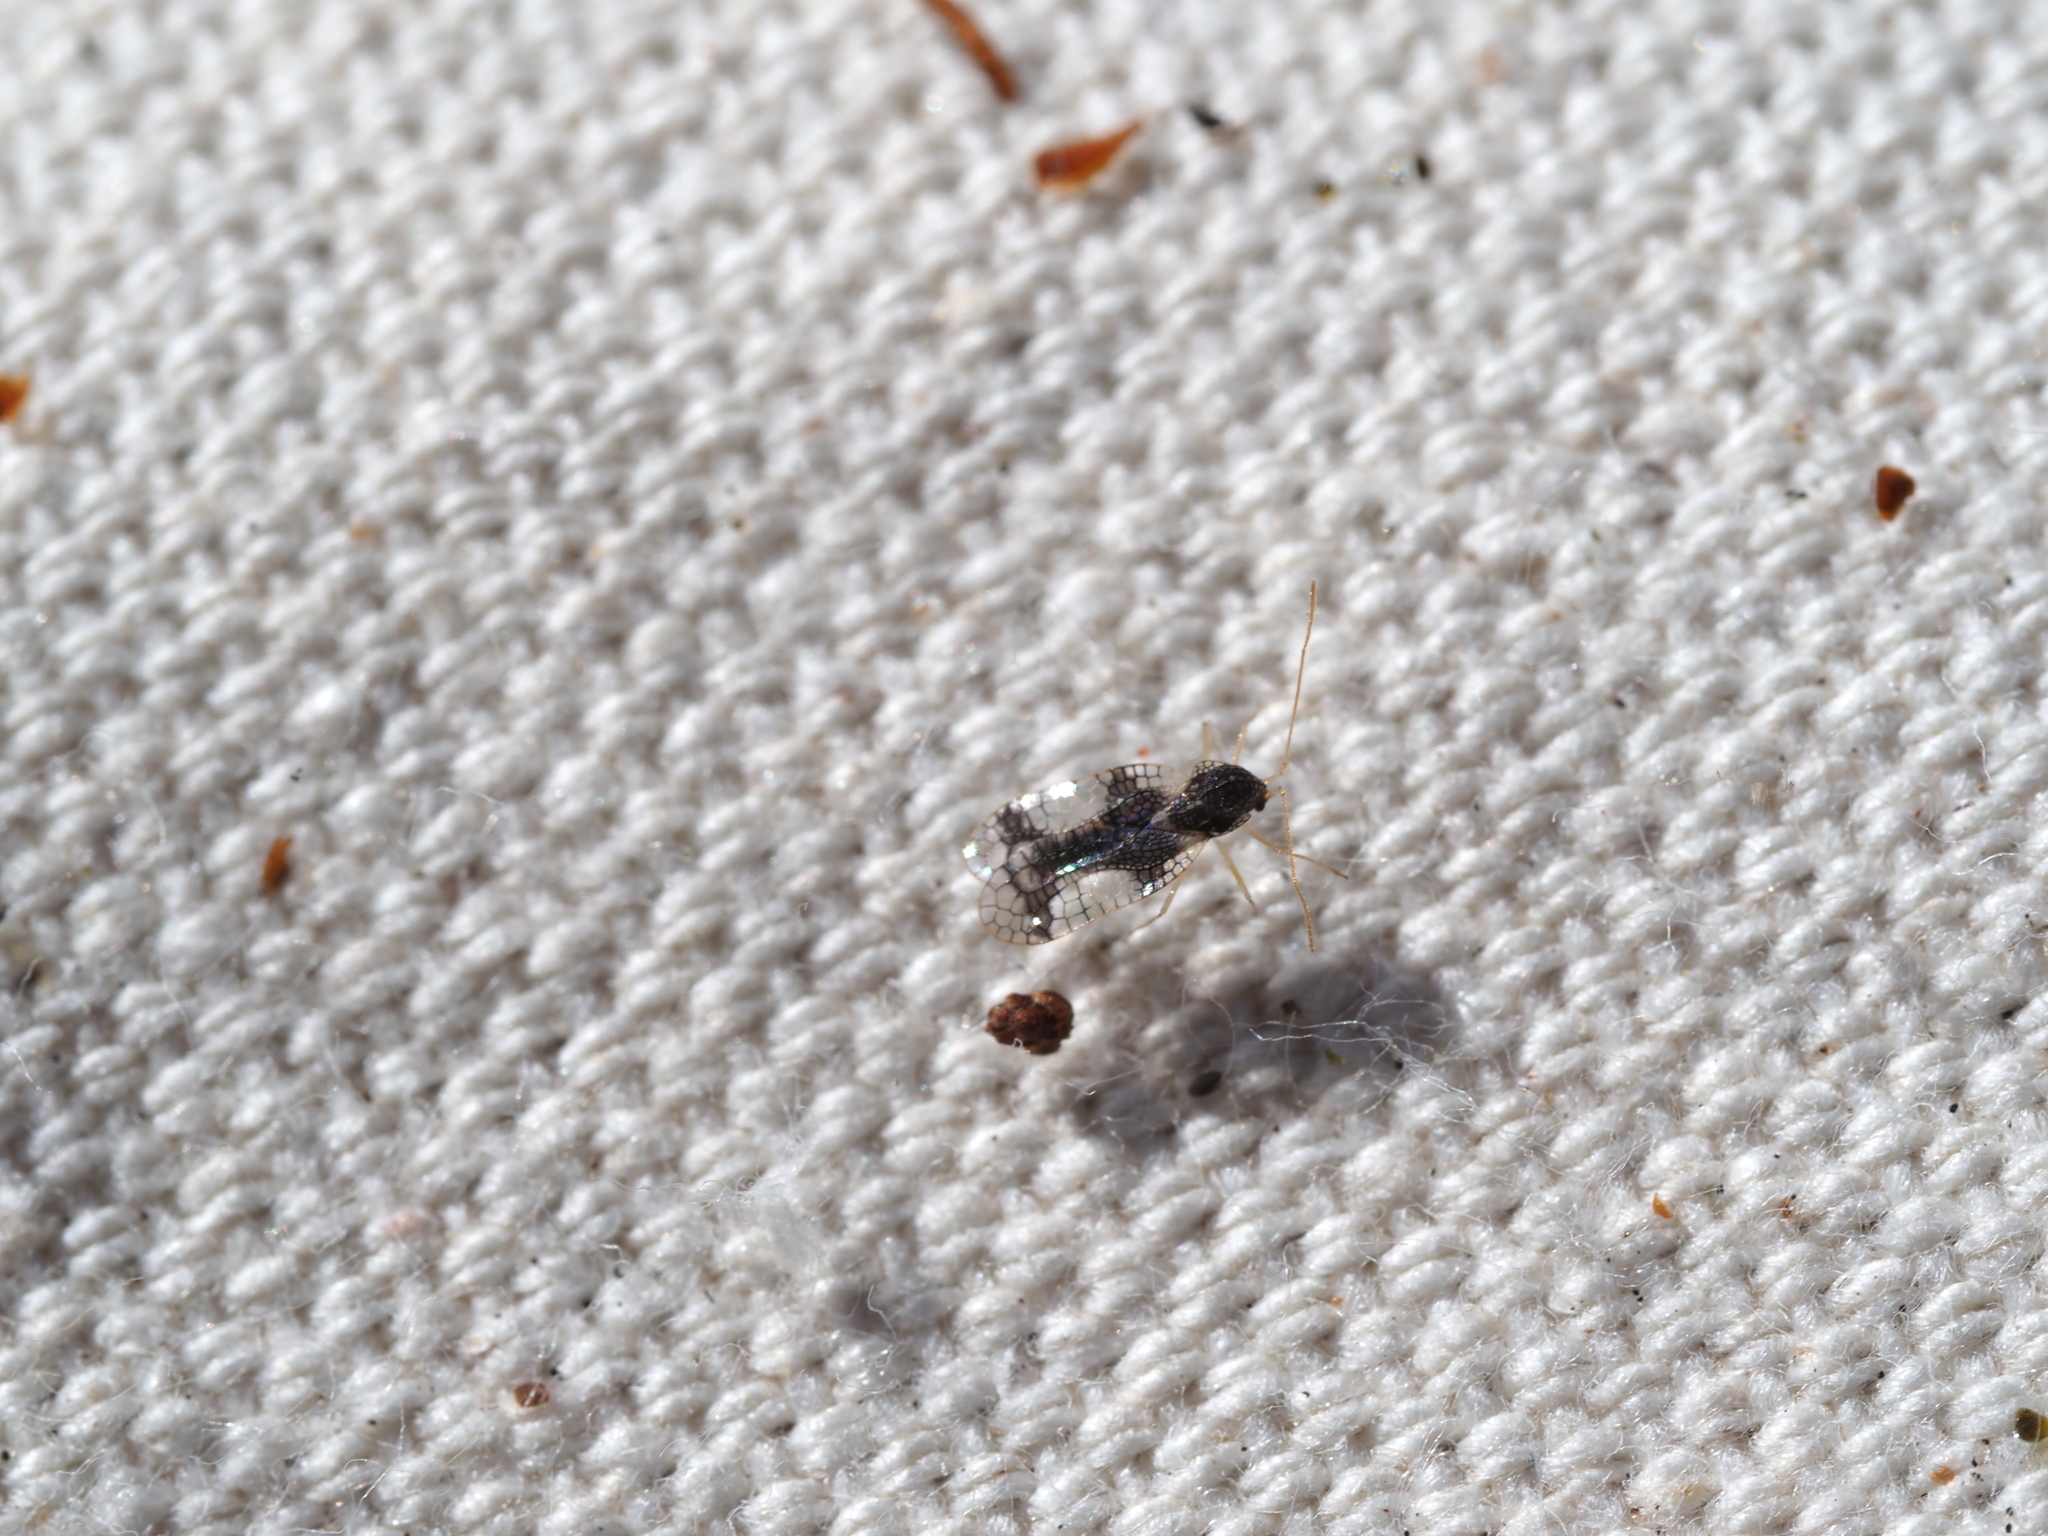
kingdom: Animalia
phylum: Arthropoda
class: Insecta
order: Hemiptera
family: Tingidae
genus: Stephanitis
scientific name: Stephanitis takeyai
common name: Andromeda lacebug
